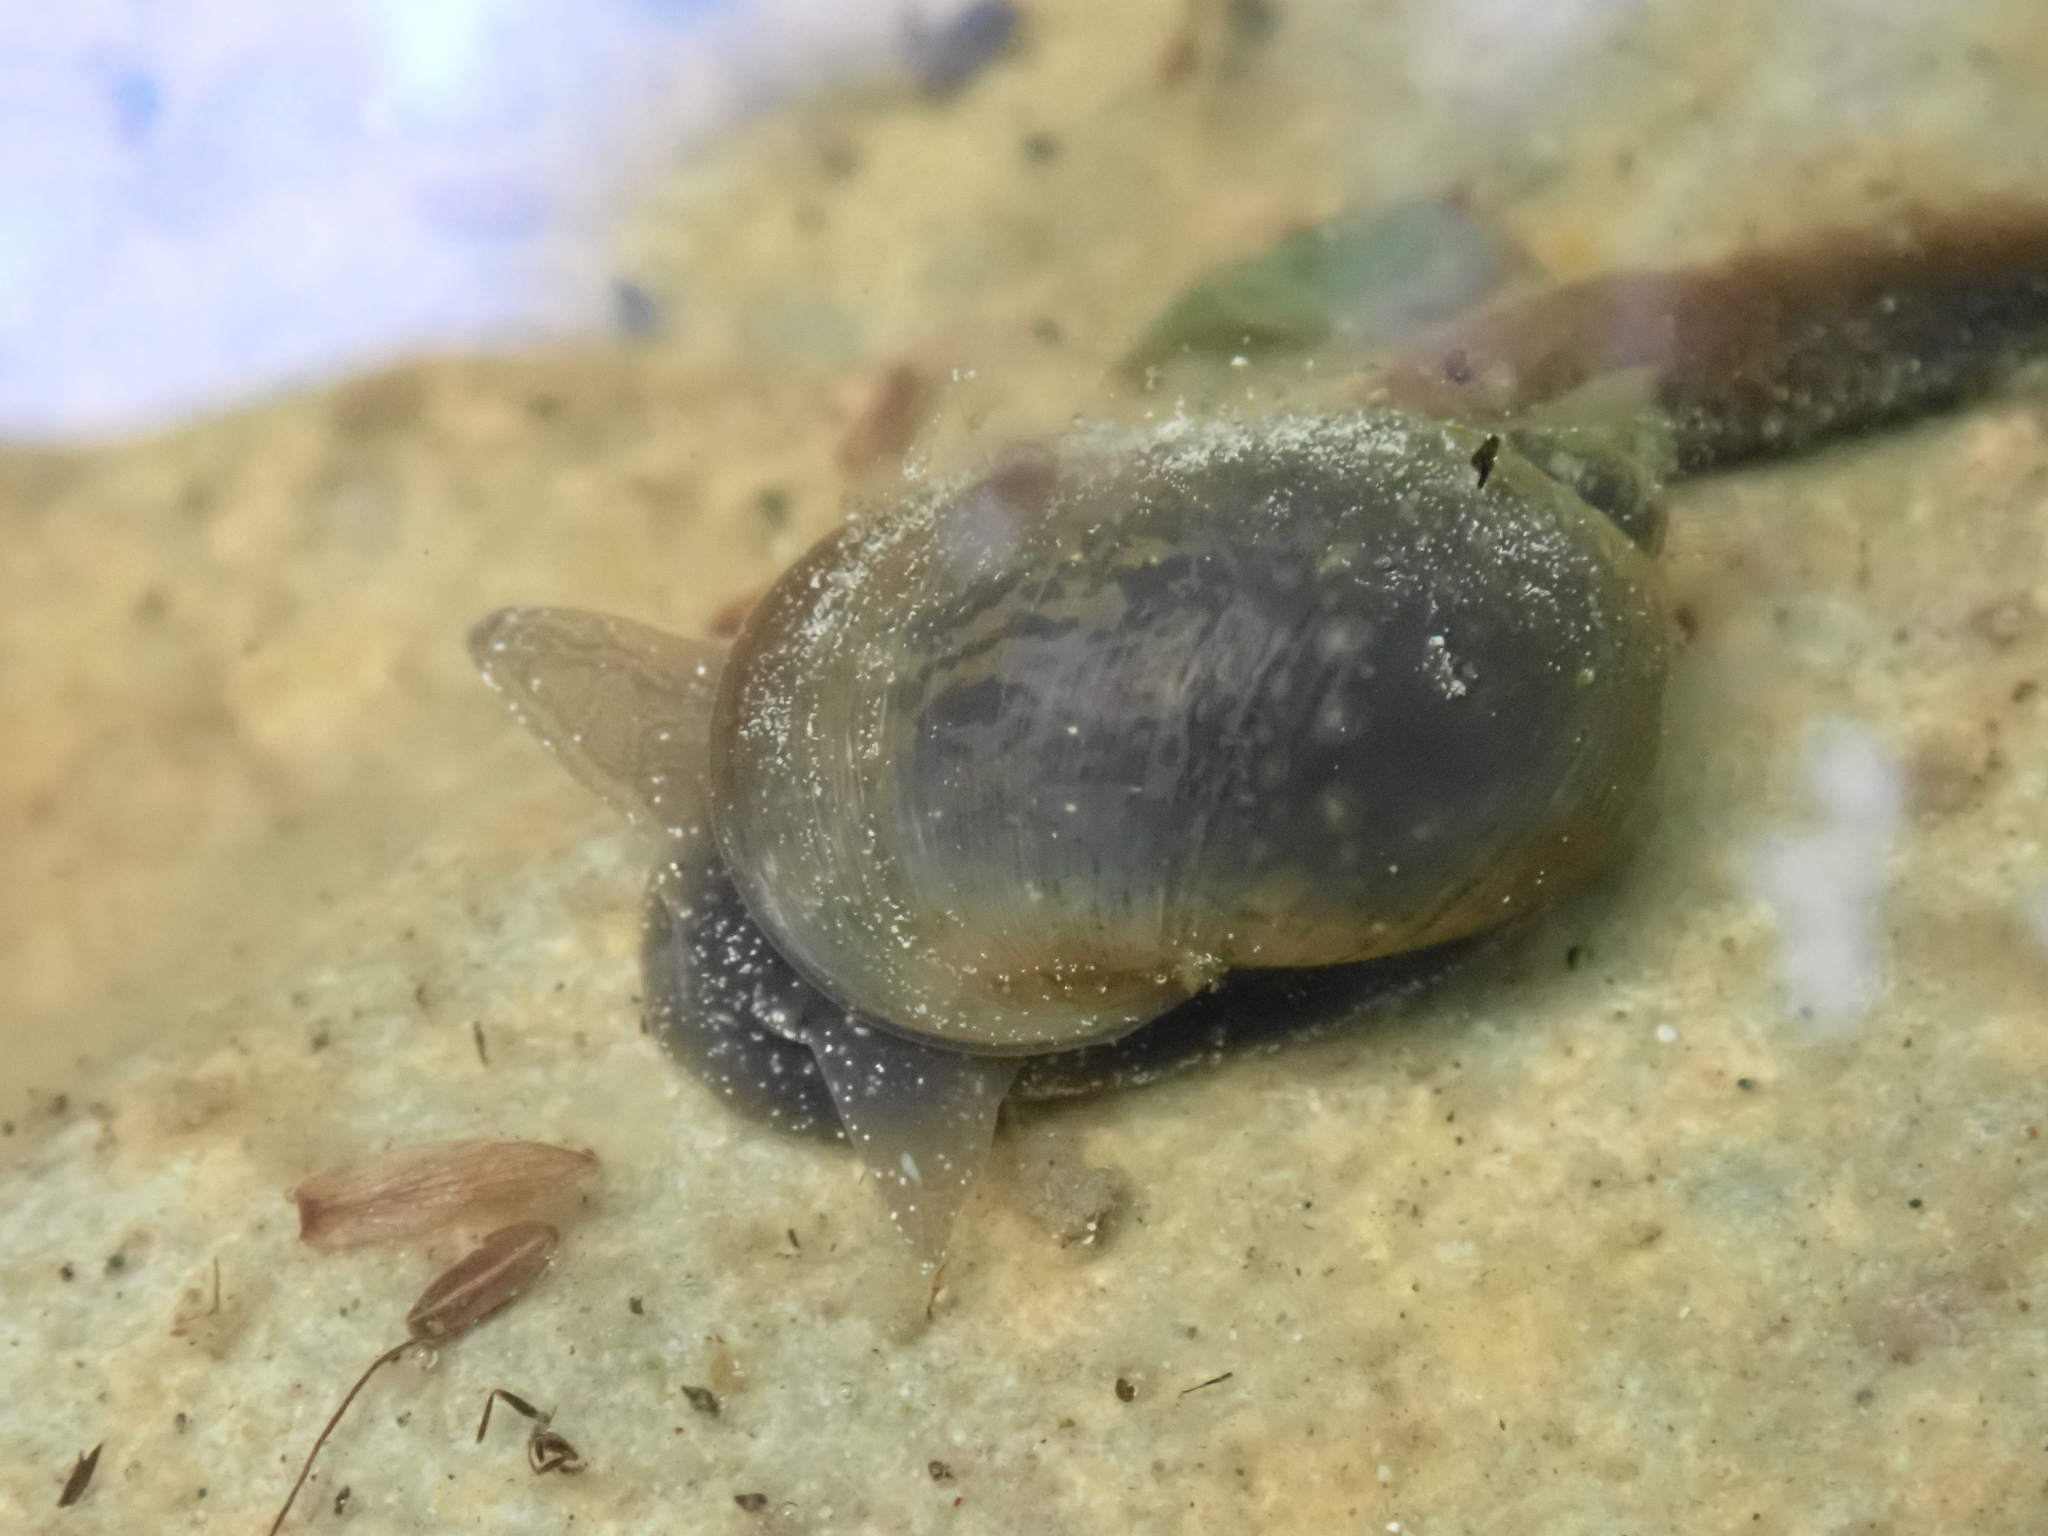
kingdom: Animalia
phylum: Mollusca
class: Gastropoda
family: Lymnaeidae
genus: Ampullaceana
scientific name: Ampullaceana balthica
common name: Wandering pond snail
